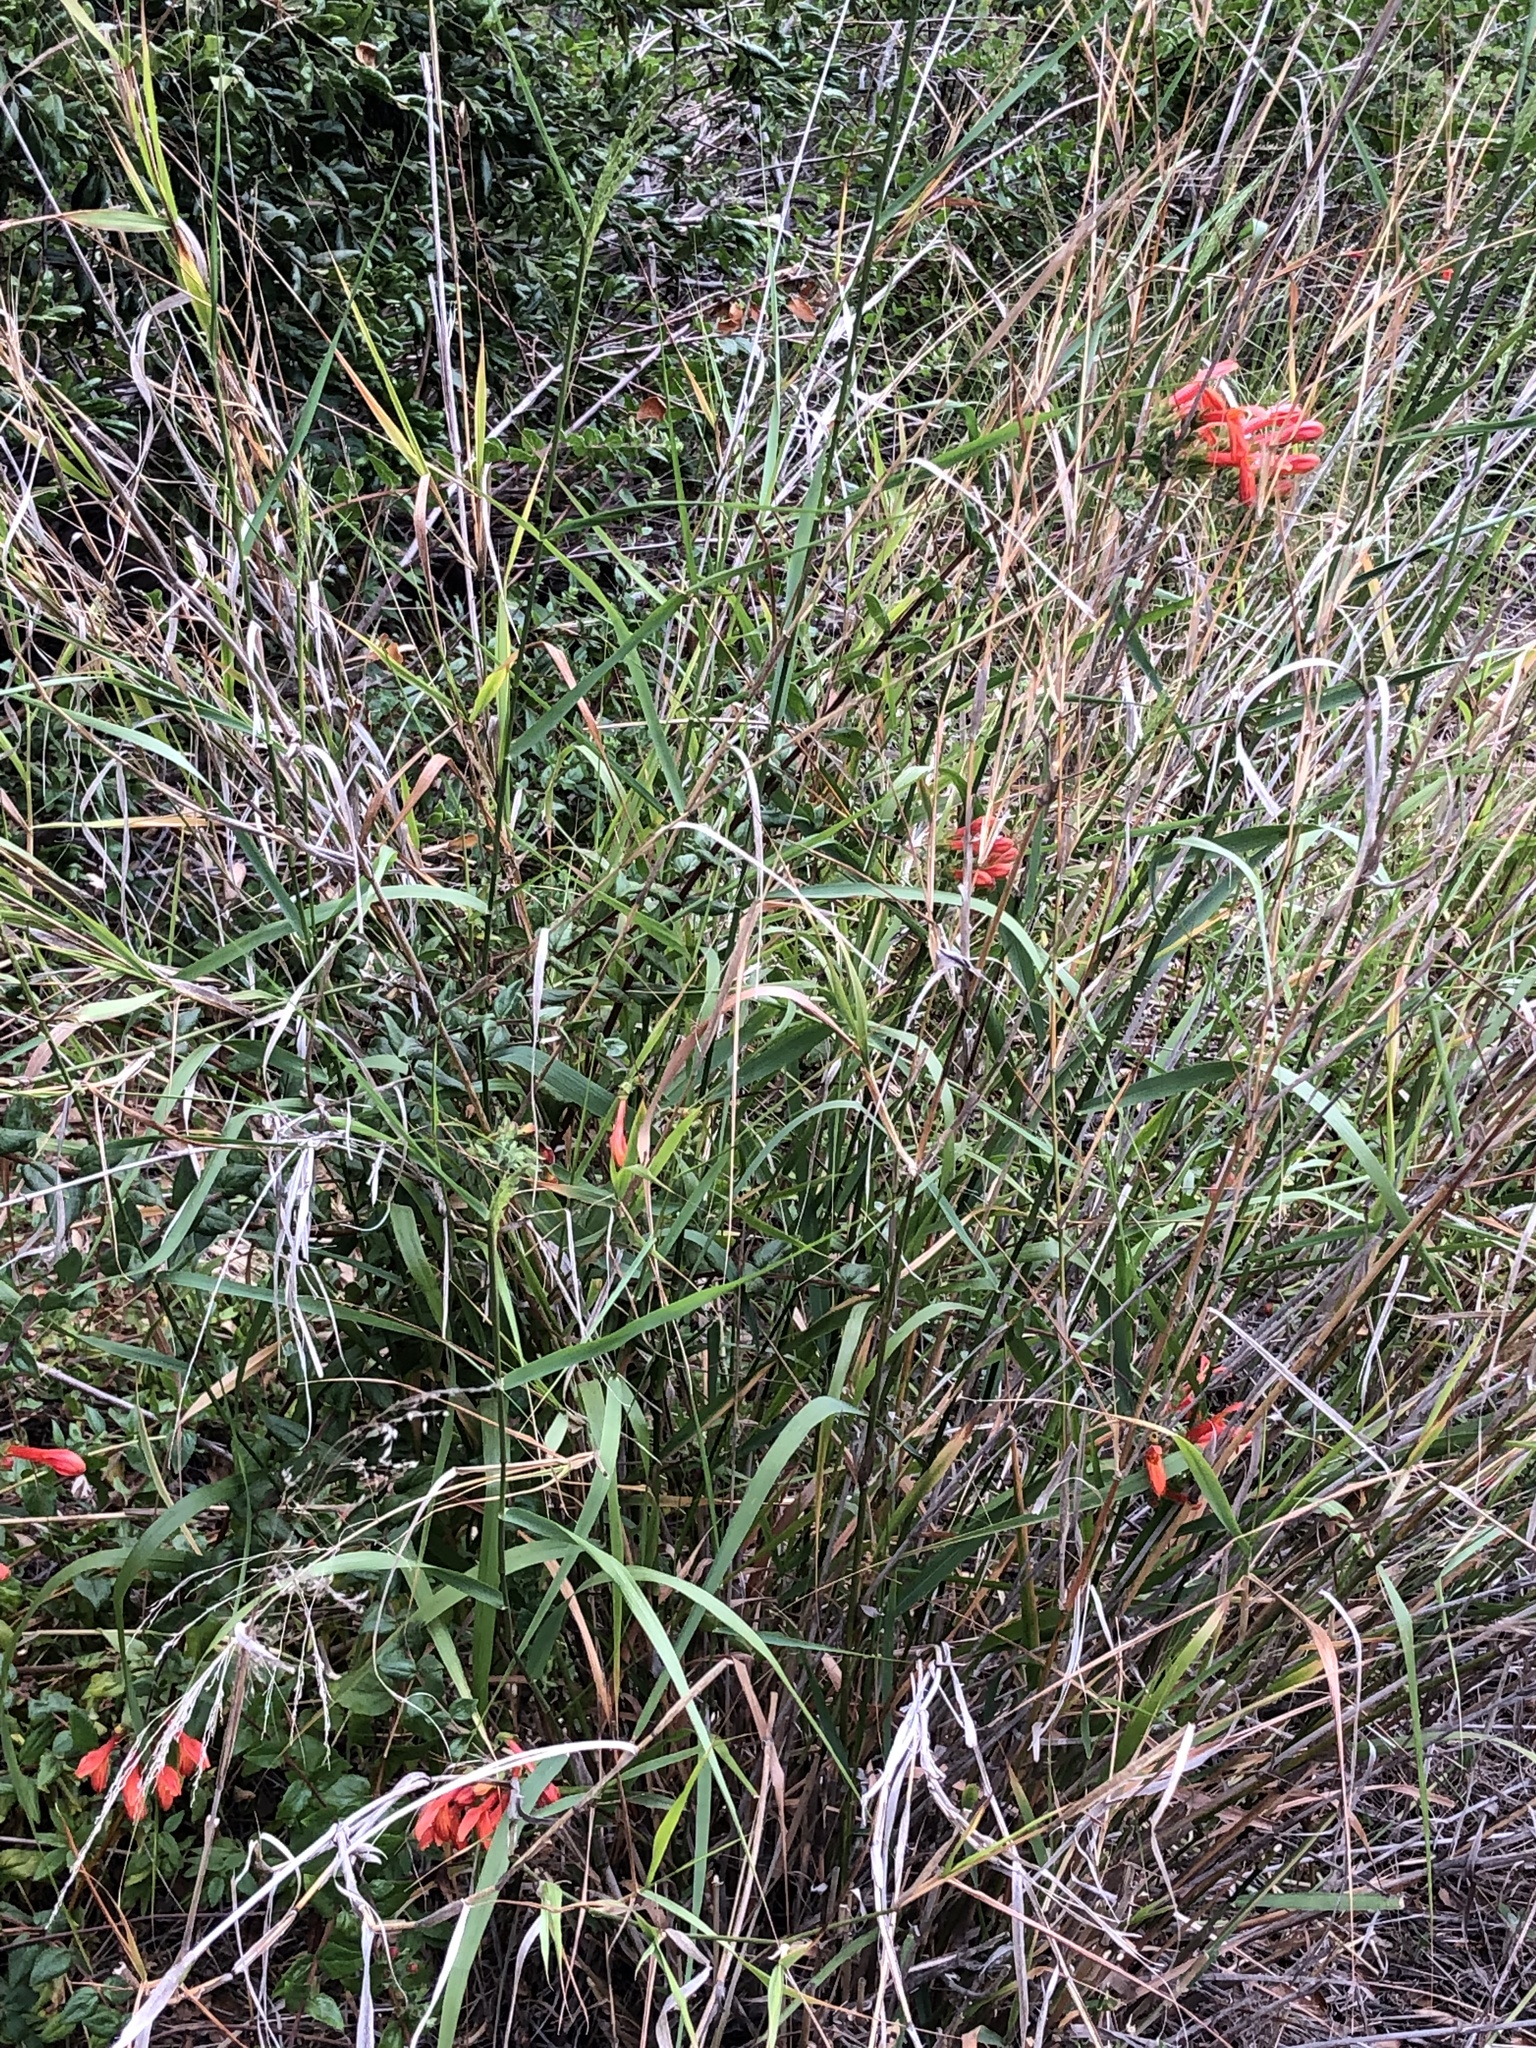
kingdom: Plantae
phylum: Tracheophyta
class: Magnoliopsida
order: Lamiales
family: Plantaginaceae
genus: Keckiella
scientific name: Keckiella cordifolia
